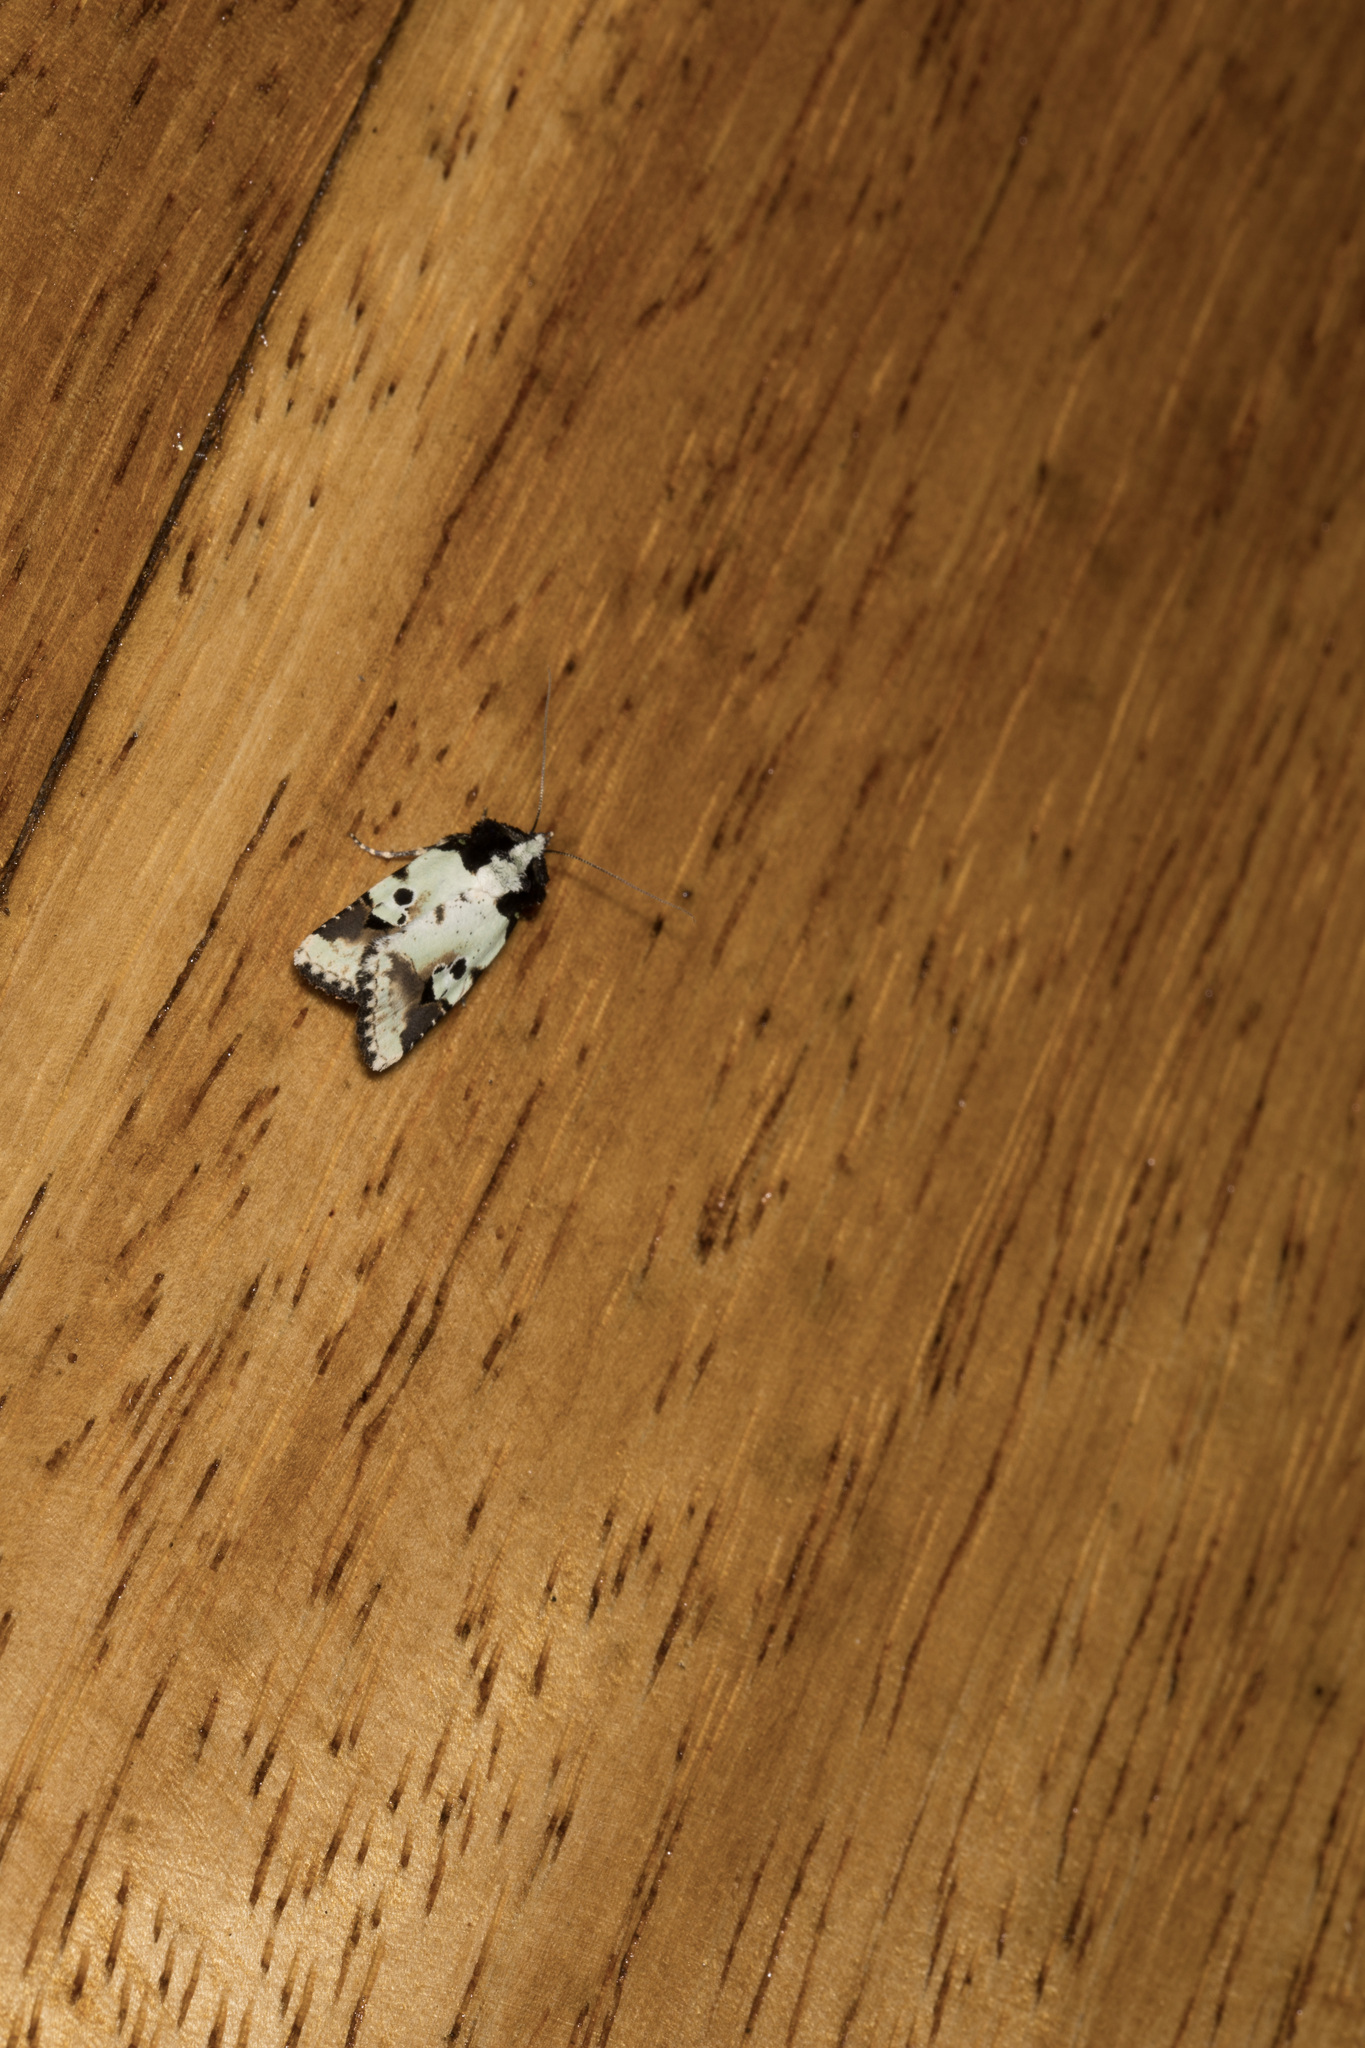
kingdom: Animalia
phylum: Arthropoda
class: Insecta
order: Lepidoptera
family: Noctuidae
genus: Bryolymnia
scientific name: Bryolymnia bicon
